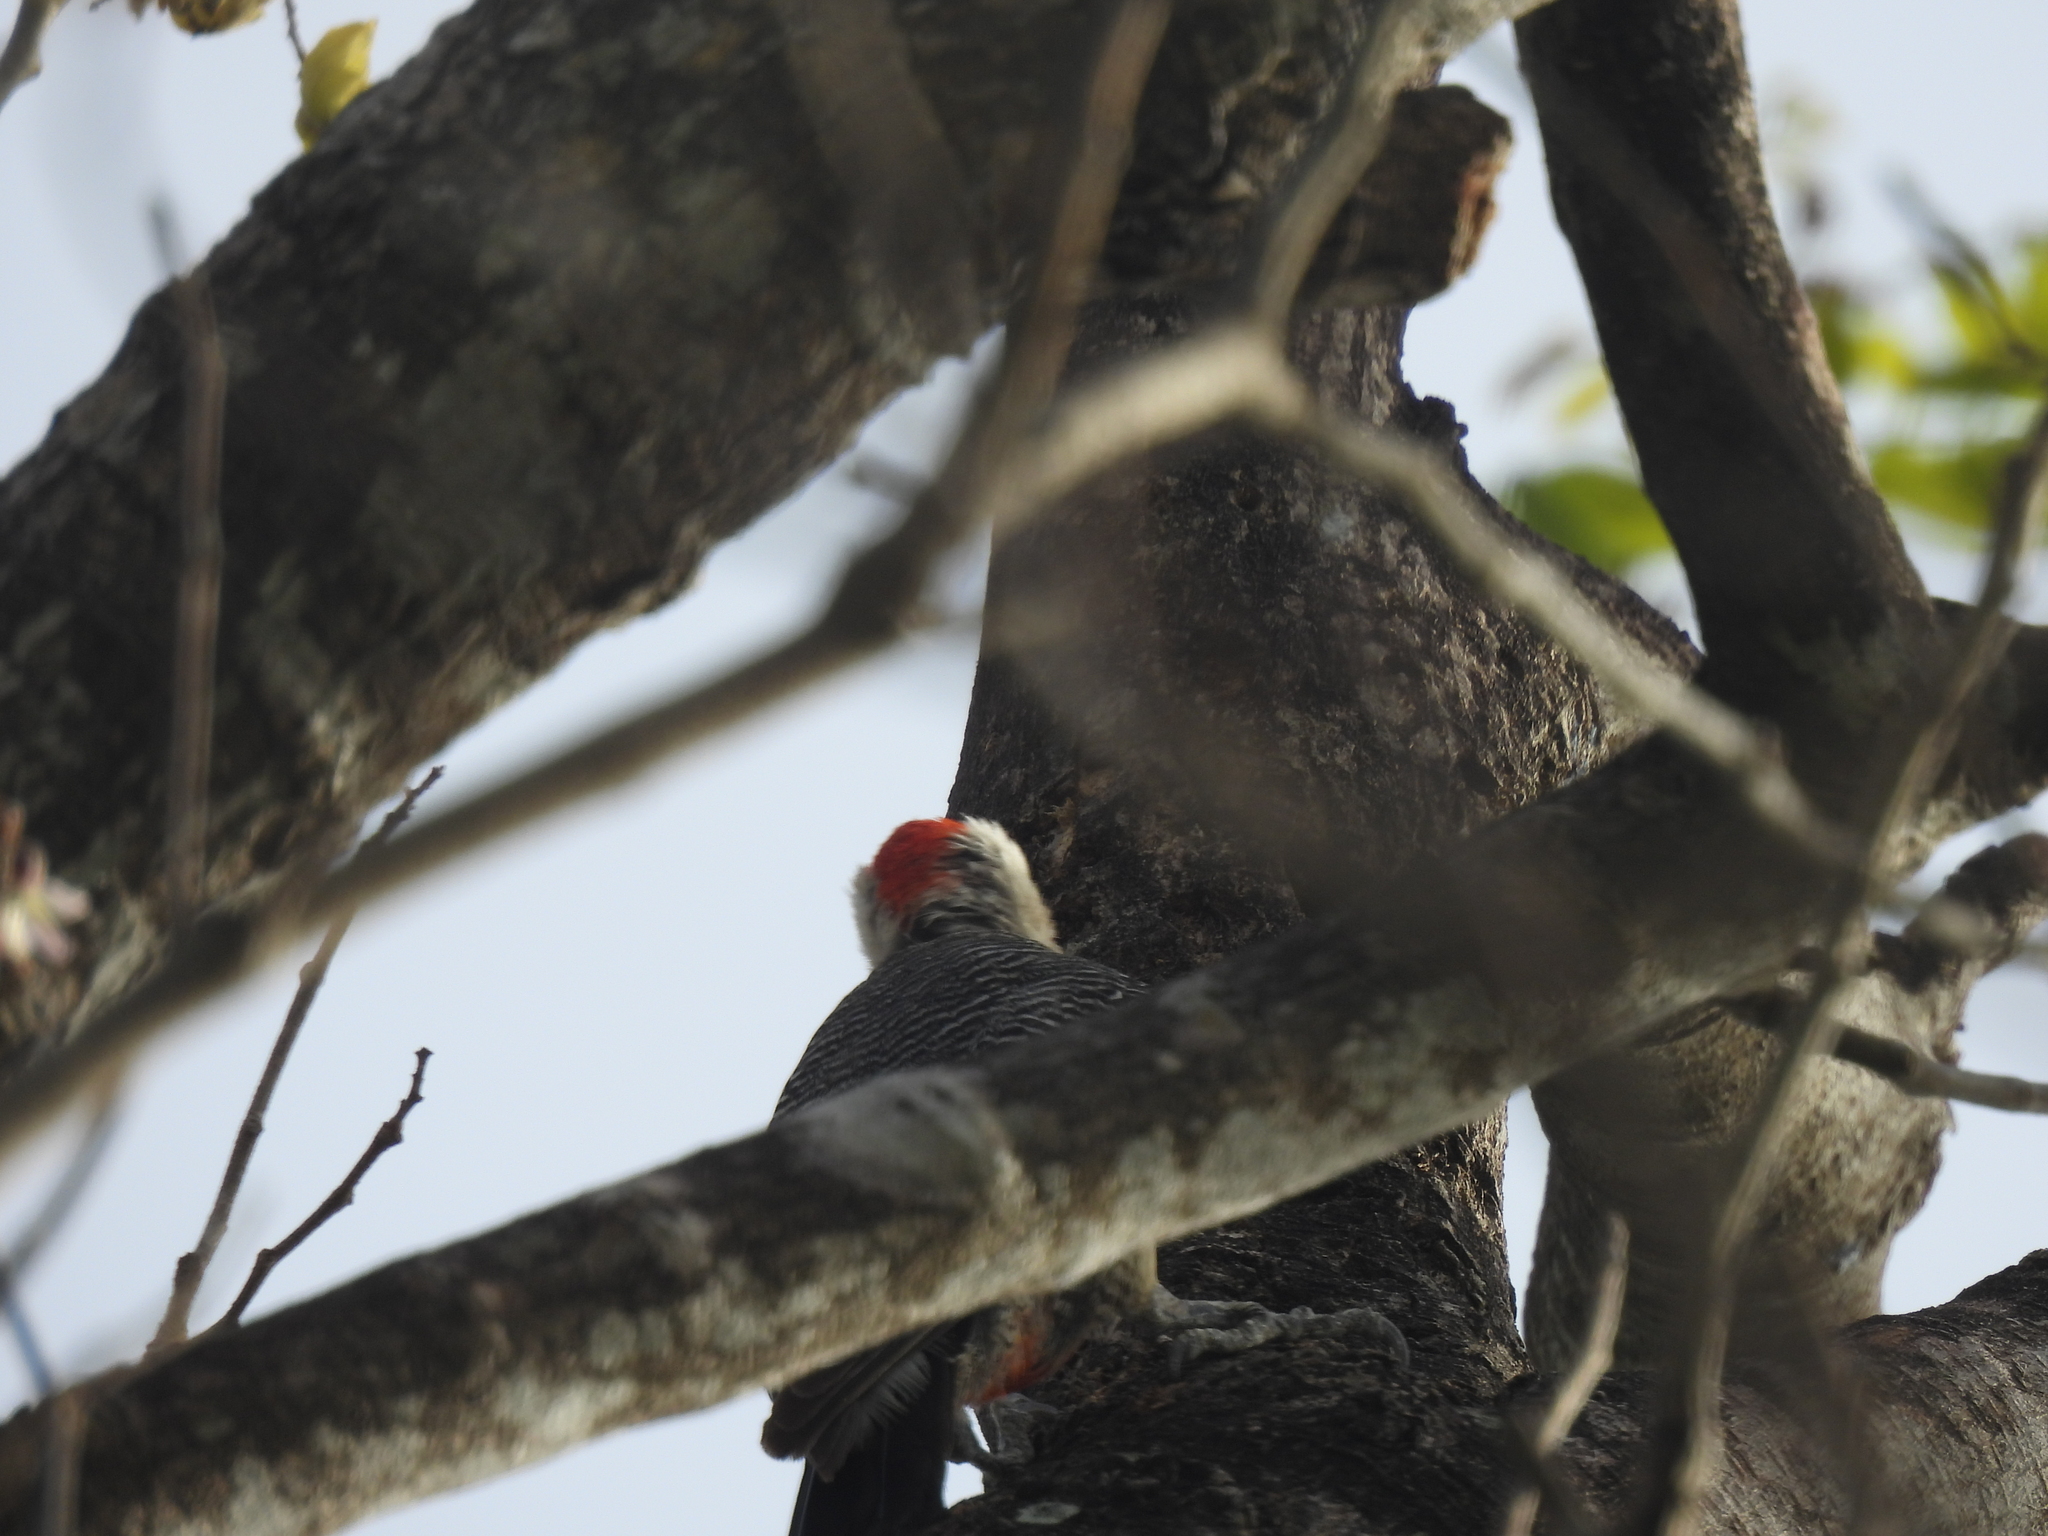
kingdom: Animalia
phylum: Chordata
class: Aves
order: Piciformes
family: Picidae
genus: Melanerpes
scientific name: Melanerpes aurifrons
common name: Golden-fronted woodpecker
